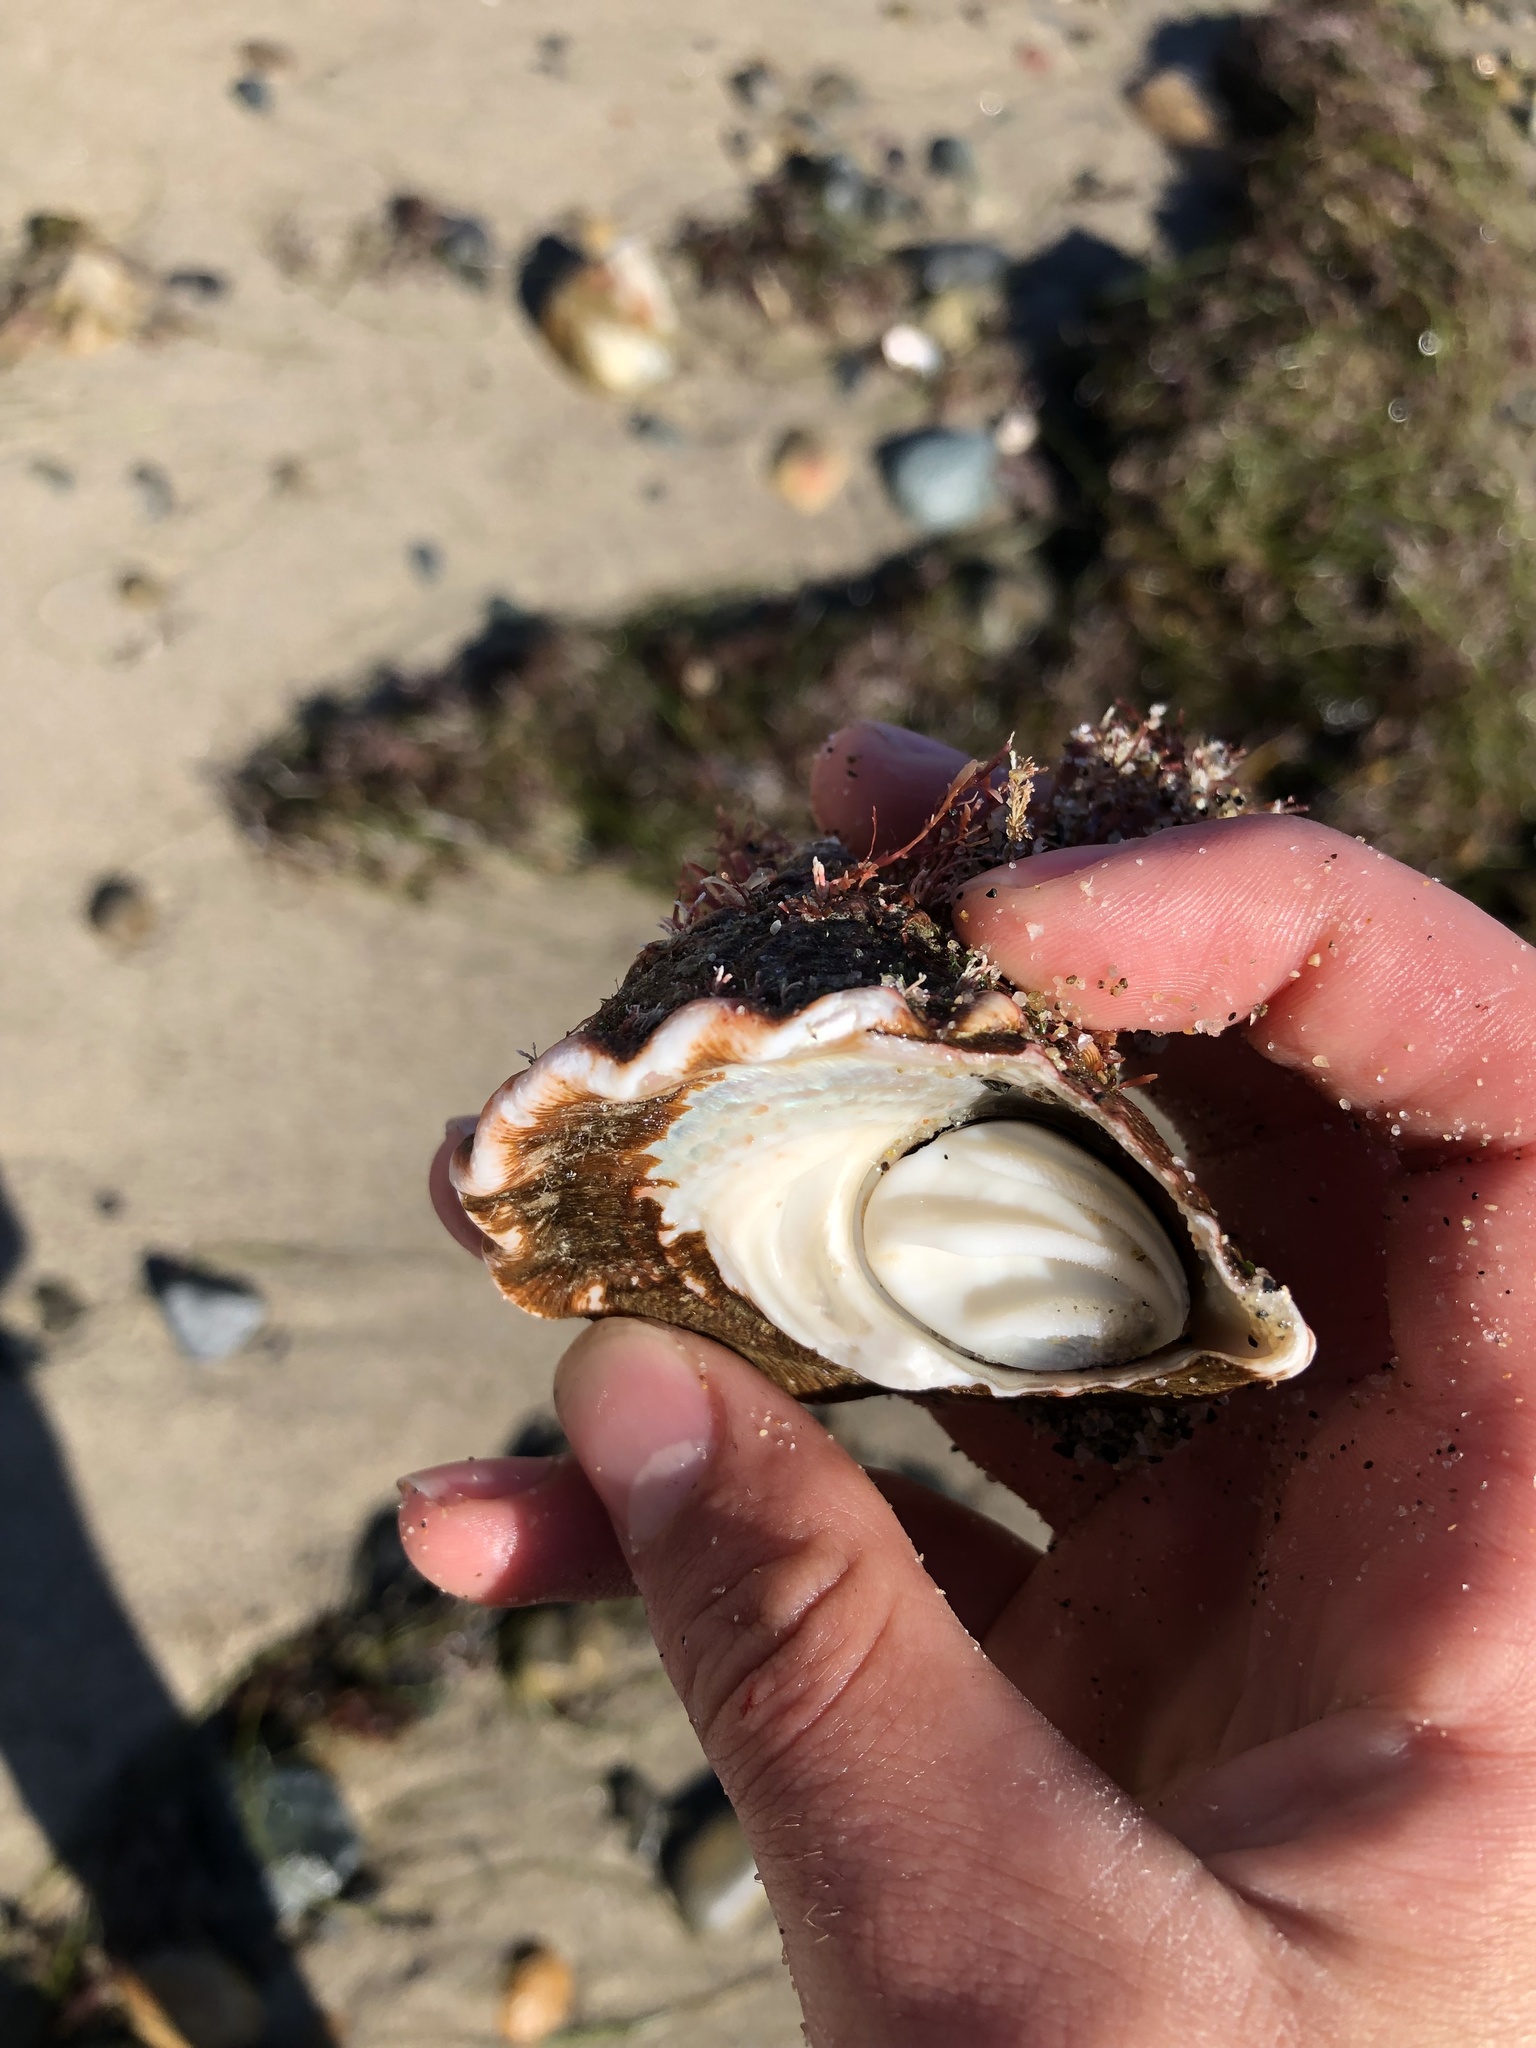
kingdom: Animalia
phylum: Mollusca
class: Gastropoda
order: Trochida
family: Turbinidae
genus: Megastraea
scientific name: Megastraea undosa
